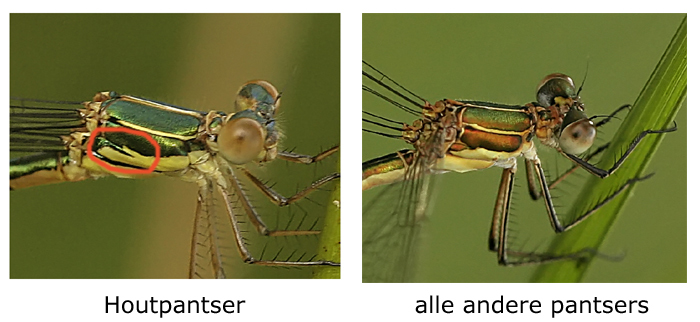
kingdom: Animalia
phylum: Arthropoda
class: Insecta
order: Odonata
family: Lestidae
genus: Chalcolestes
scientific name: Chalcolestes viridis
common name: Green emerald damselfly
